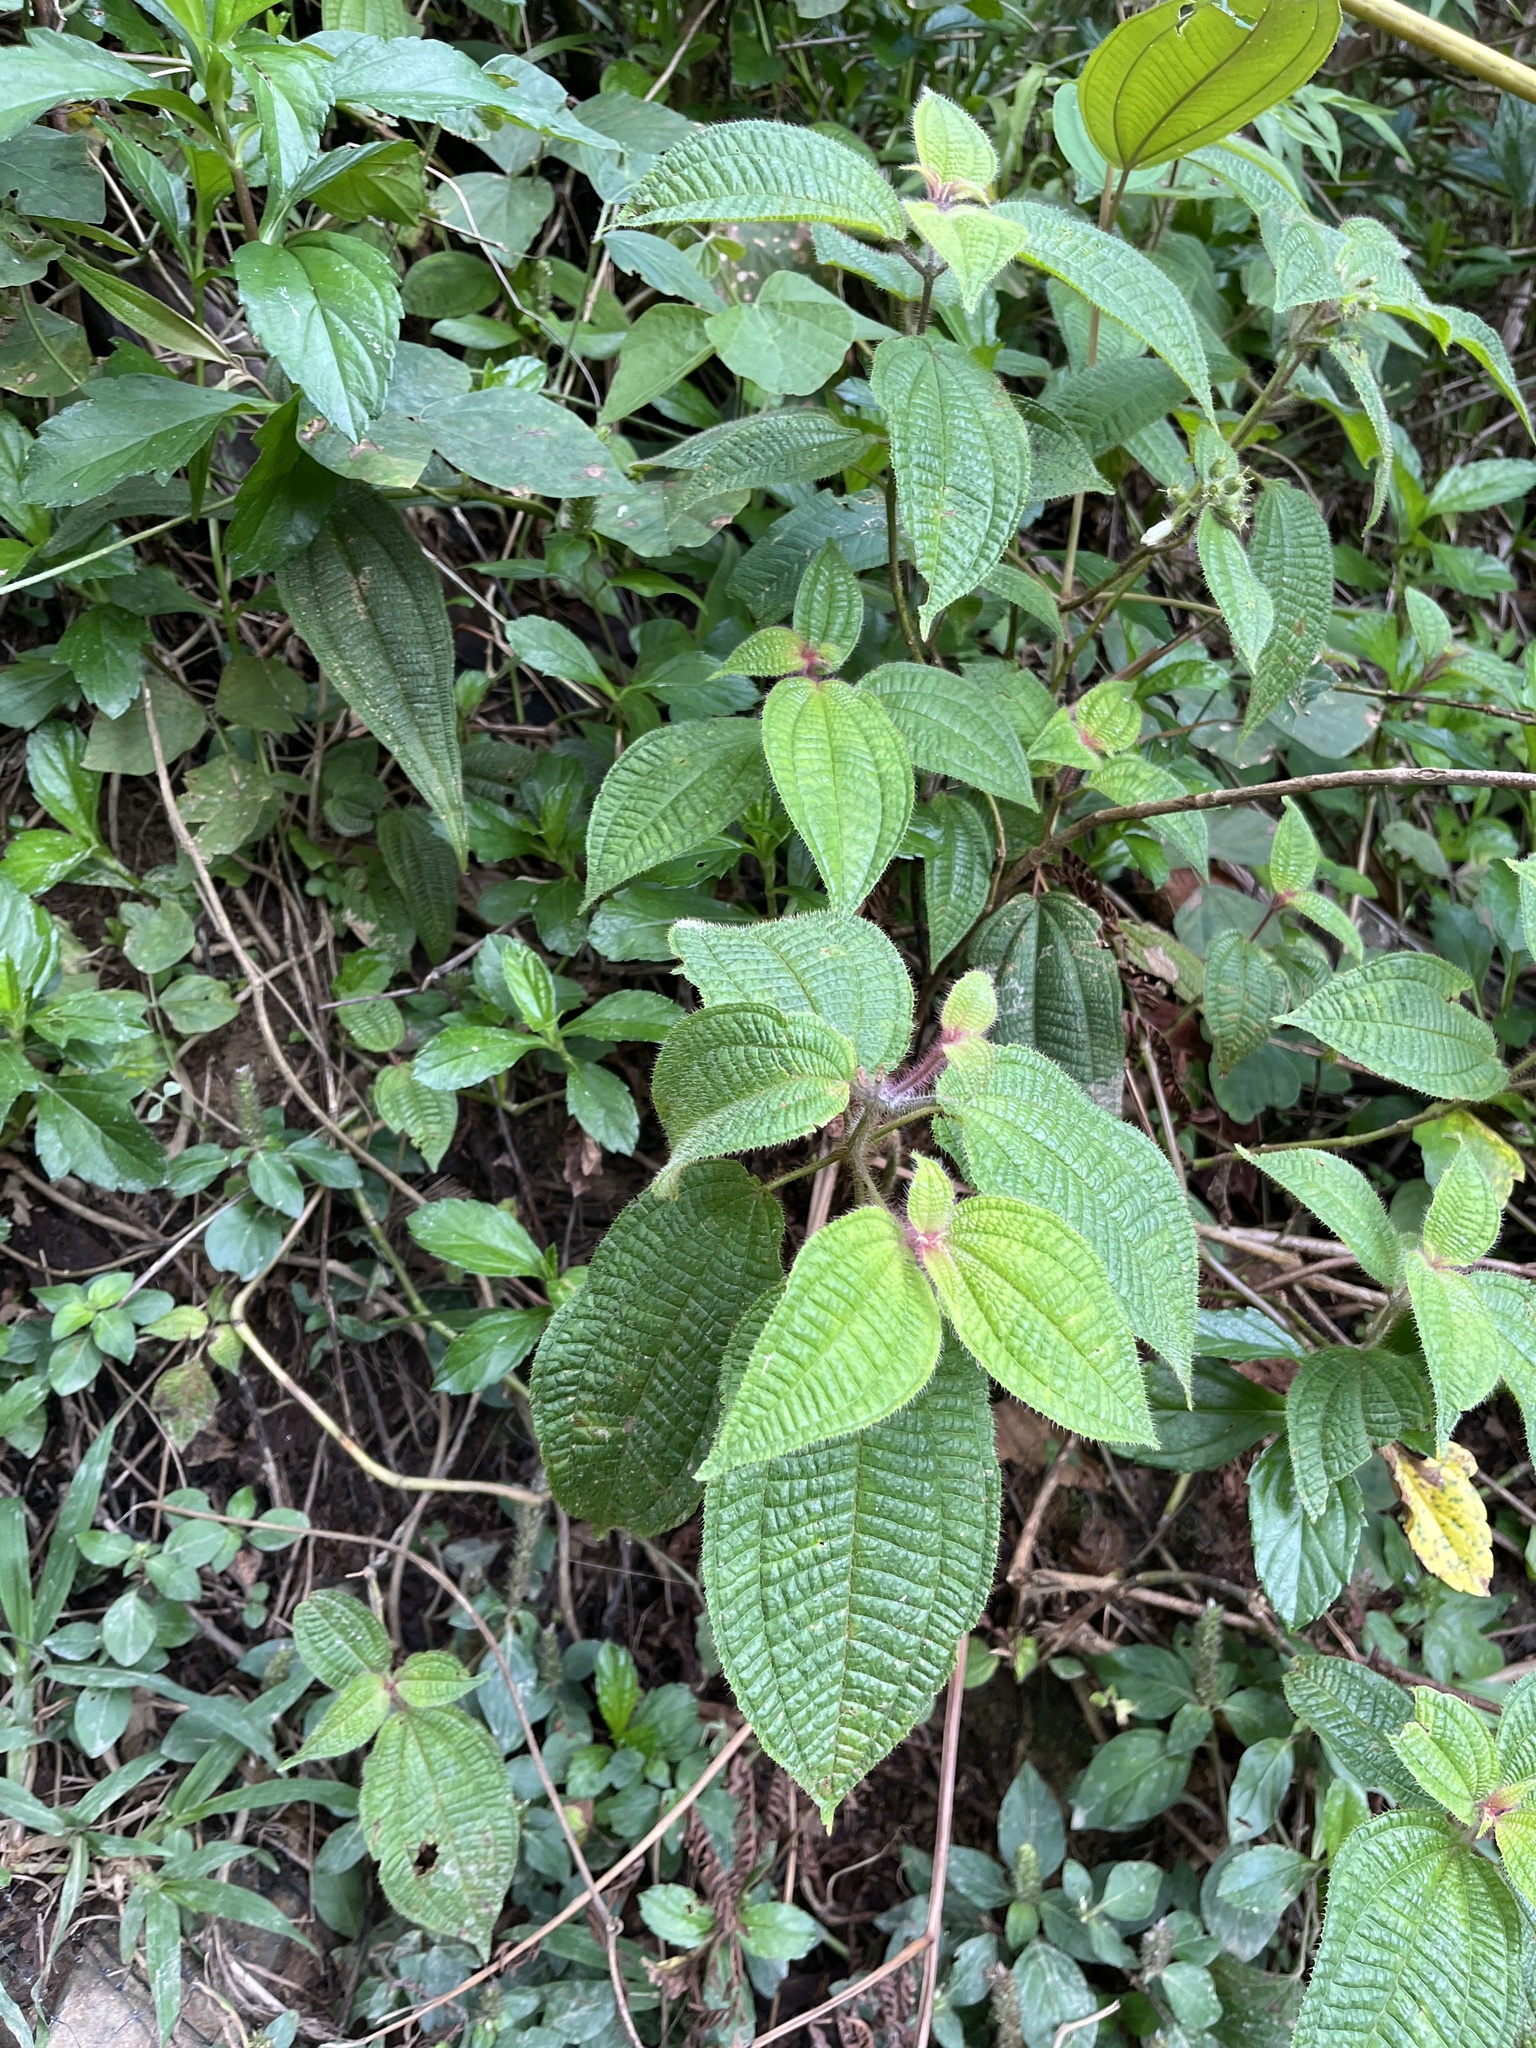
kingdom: Plantae
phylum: Tracheophyta
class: Magnoliopsida
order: Myrtales
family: Melastomataceae
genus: Miconia
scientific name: Miconia crenata
